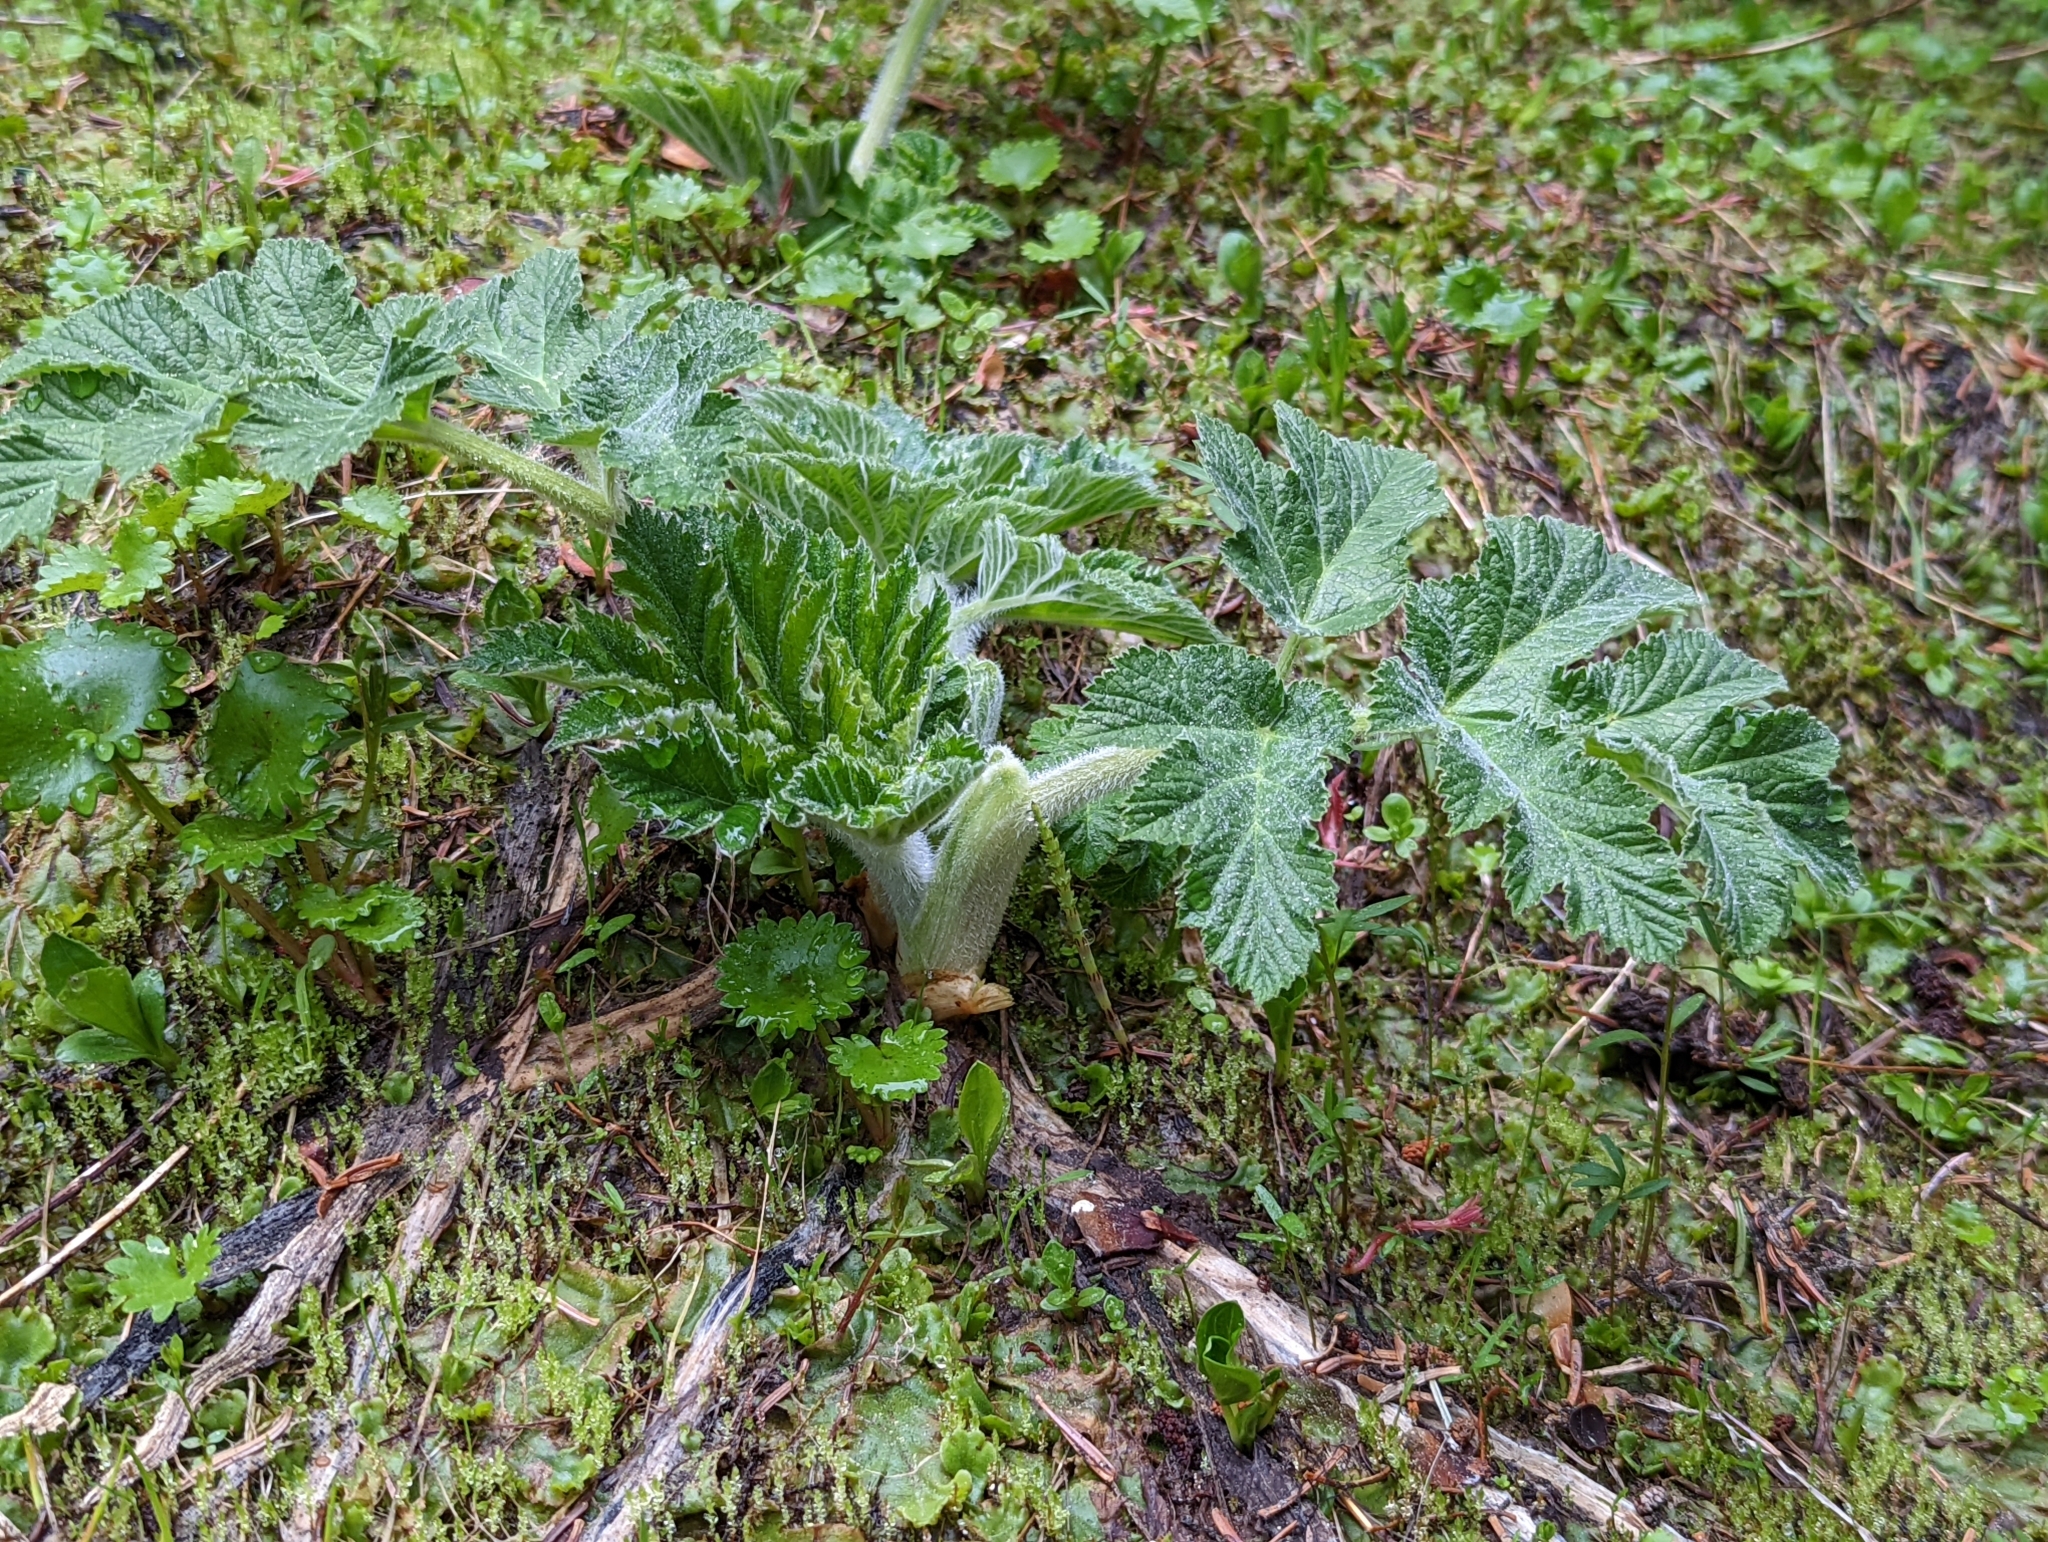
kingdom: Plantae
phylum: Tracheophyta
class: Magnoliopsida
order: Apiales
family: Apiaceae
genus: Heracleum
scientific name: Heracleum maximum
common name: American cow parsnip
